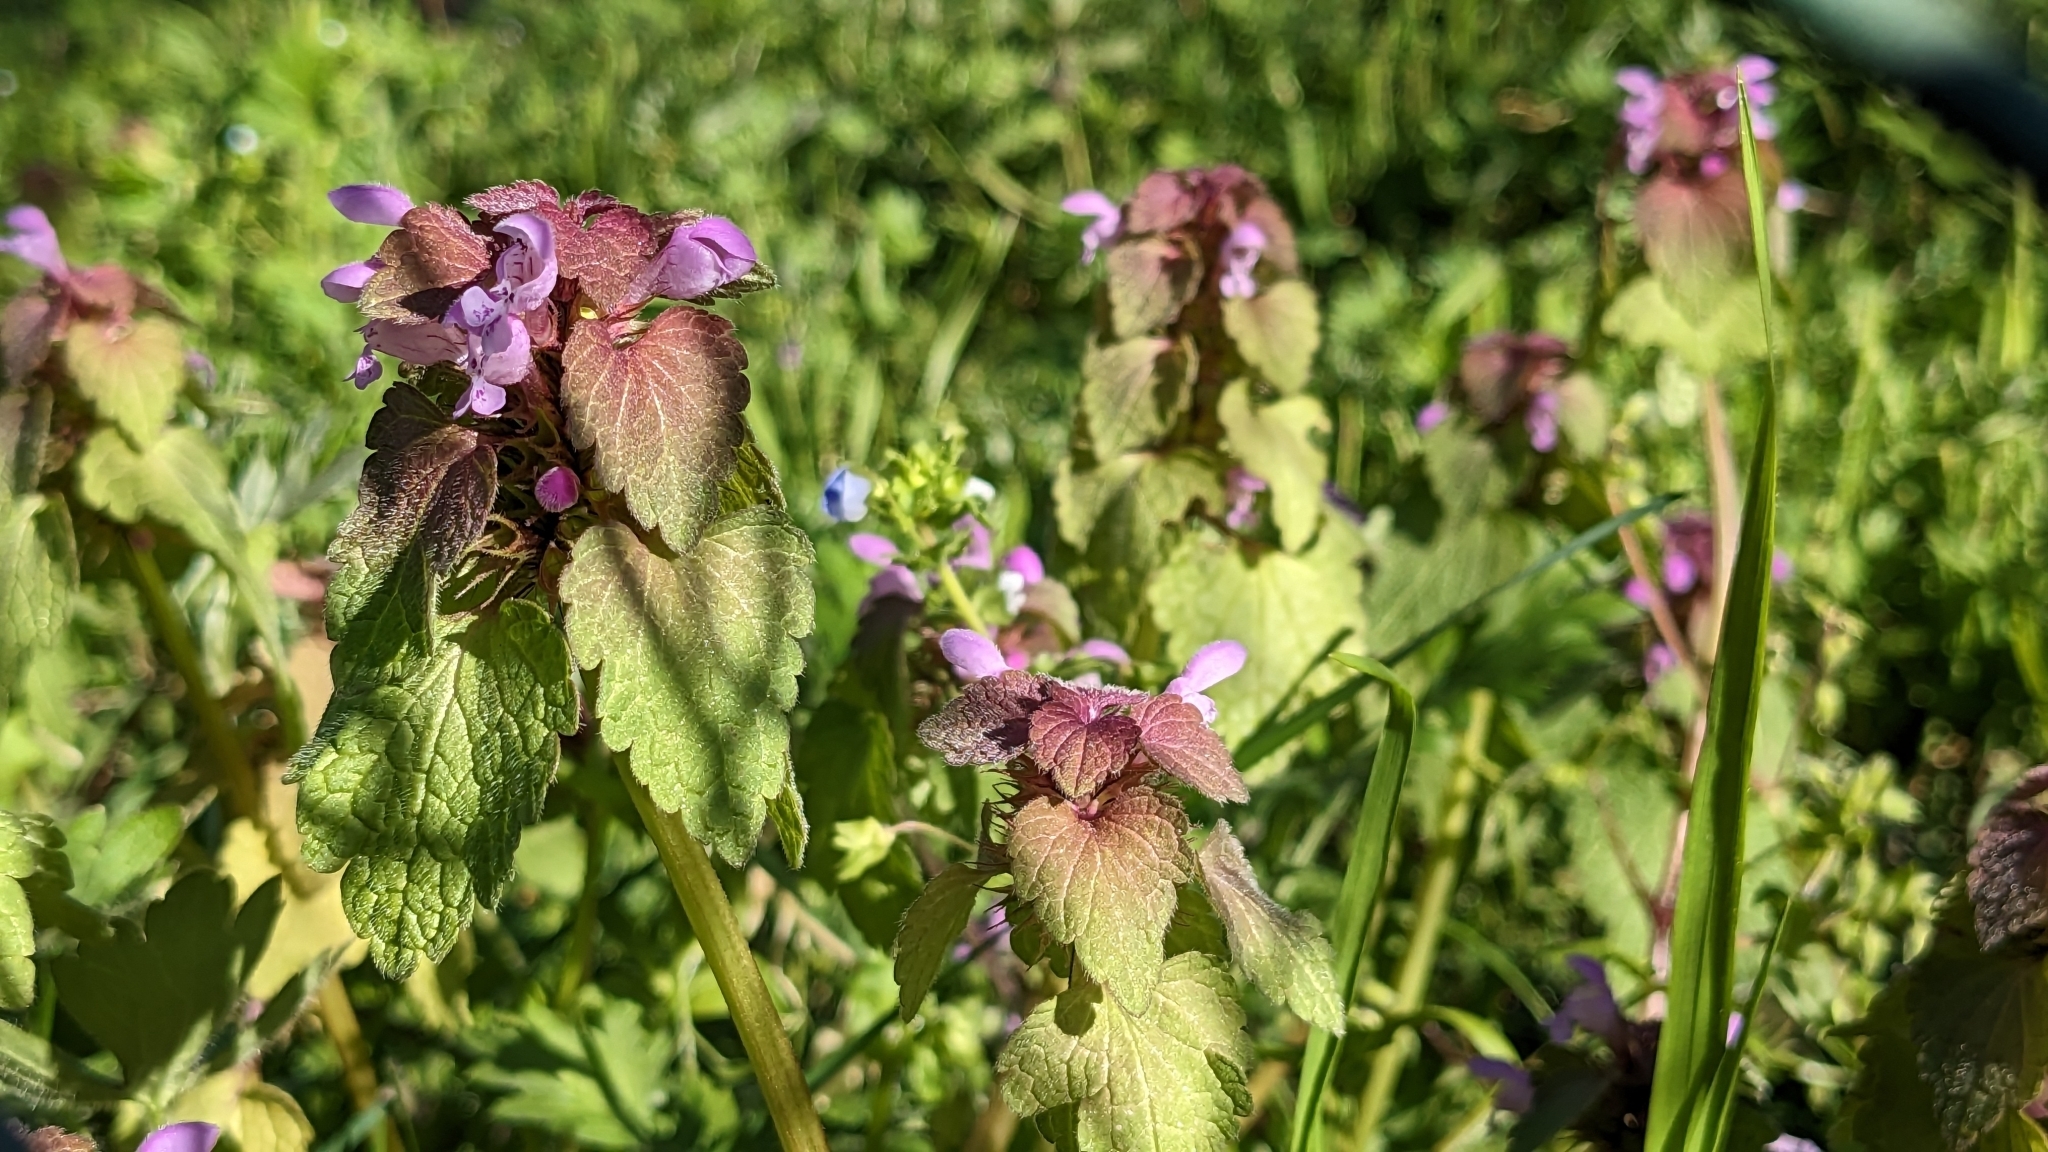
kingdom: Plantae
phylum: Tracheophyta
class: Magnoliopsida
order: Lamiales
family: Lamiaceae
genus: Lamium
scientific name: Lamium purpureum
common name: Red dead-nettle
